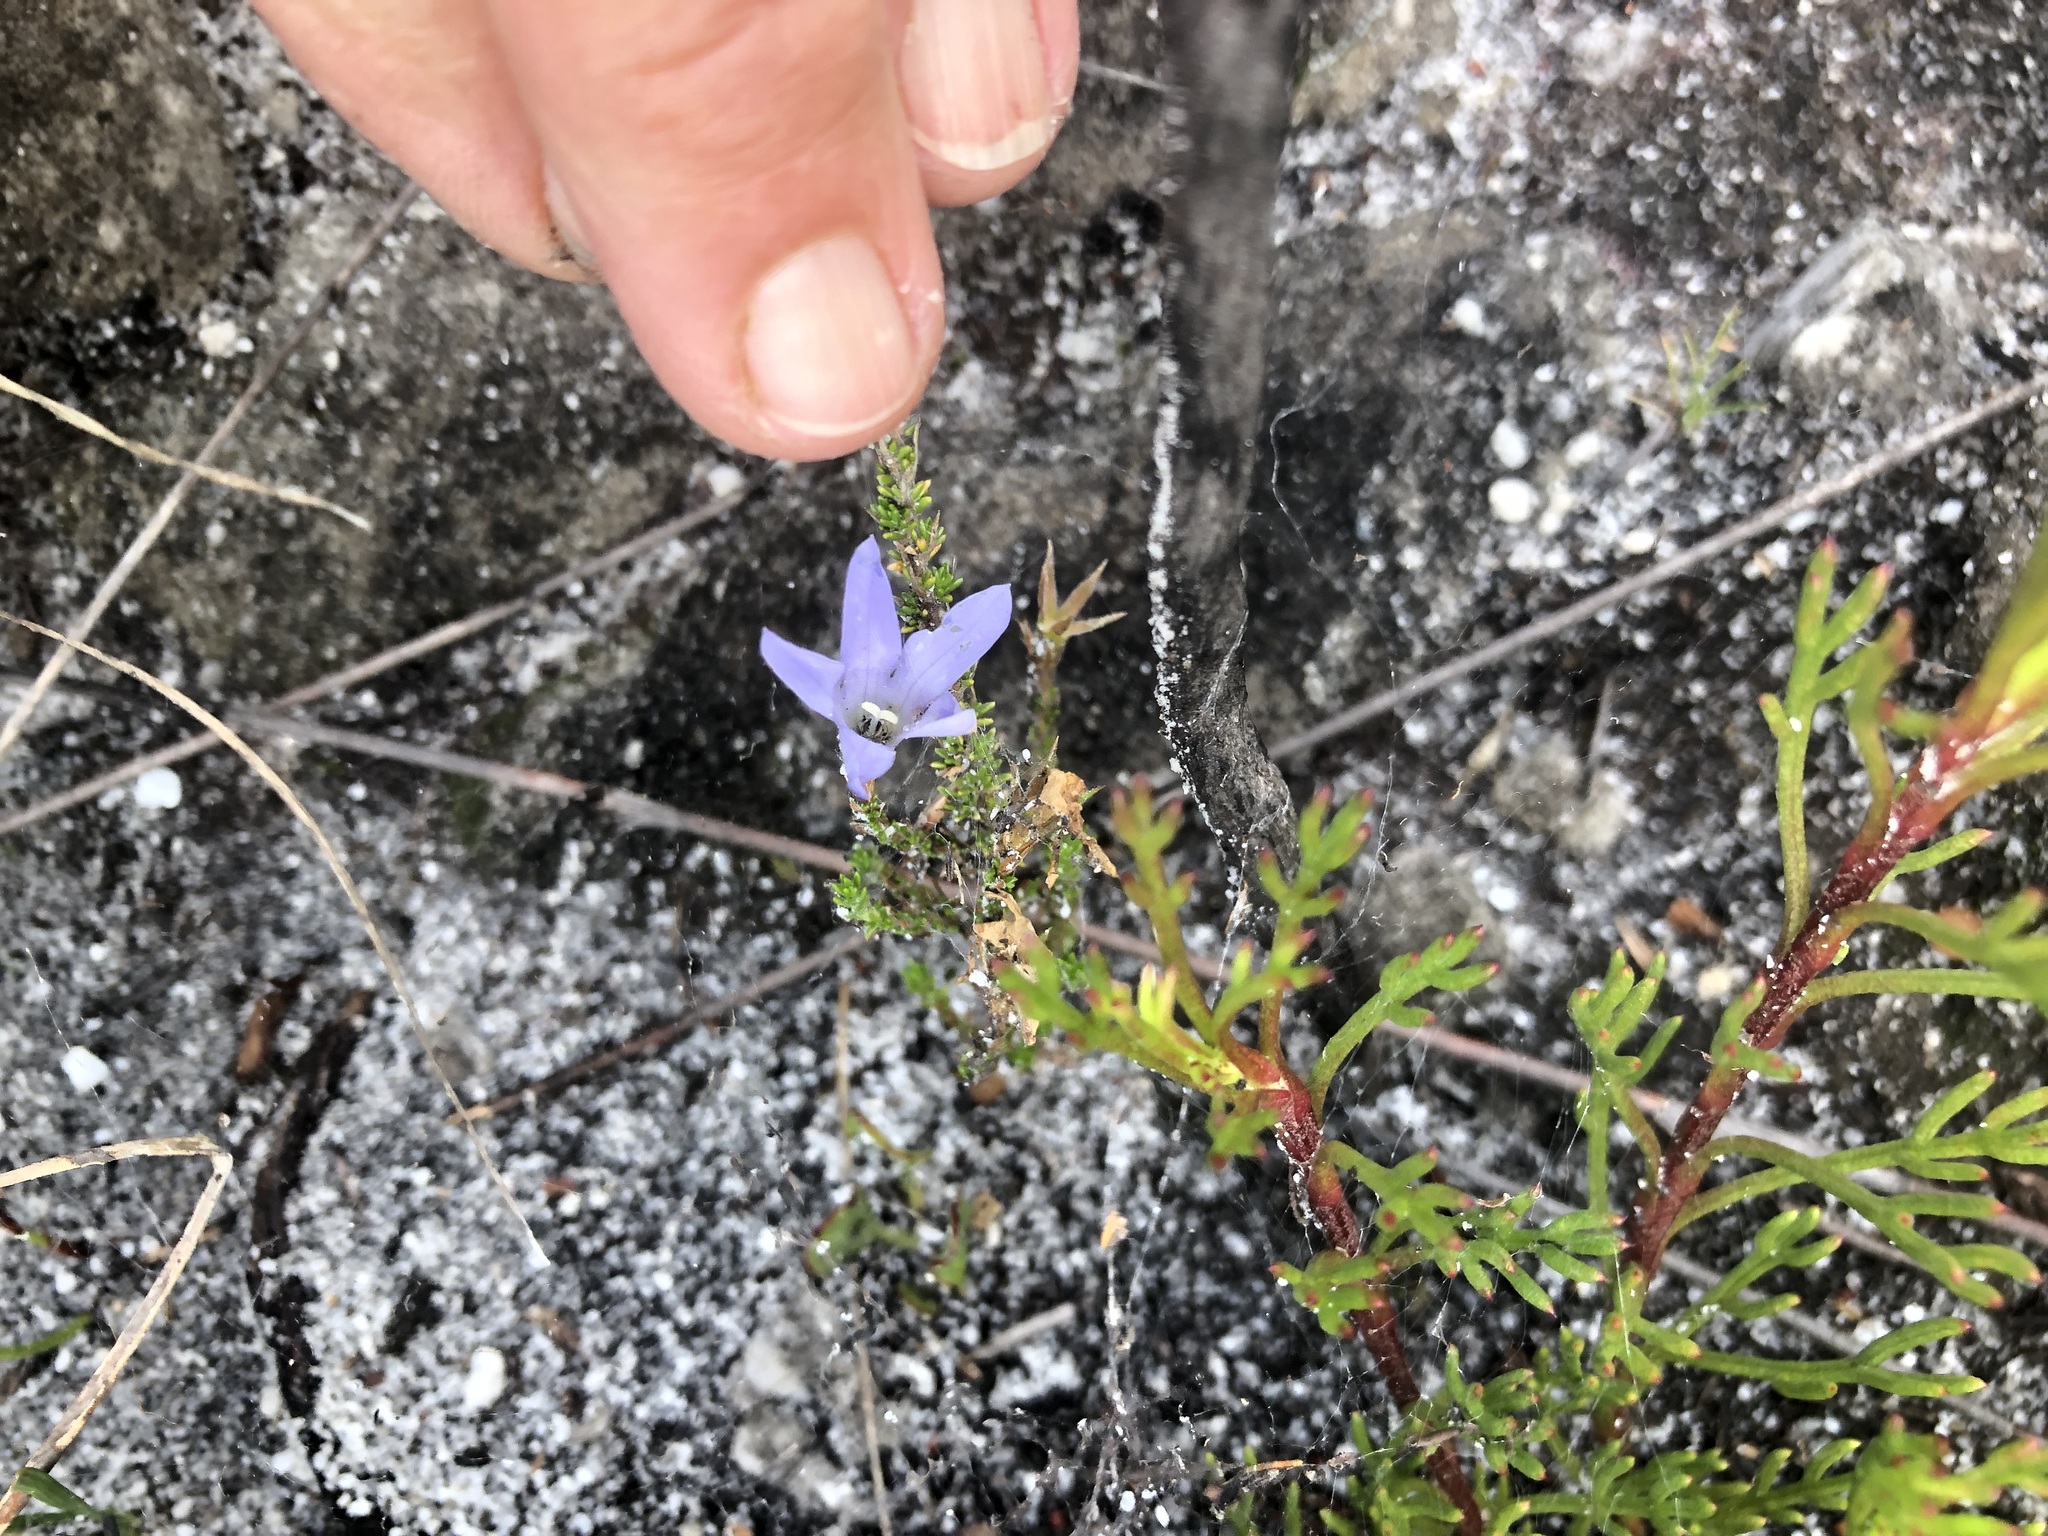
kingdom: Plantae
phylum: Tracheophyta
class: Magnoliopsida
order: Asterales
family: Campanulaceae
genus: Roella
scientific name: Roella prostrata
